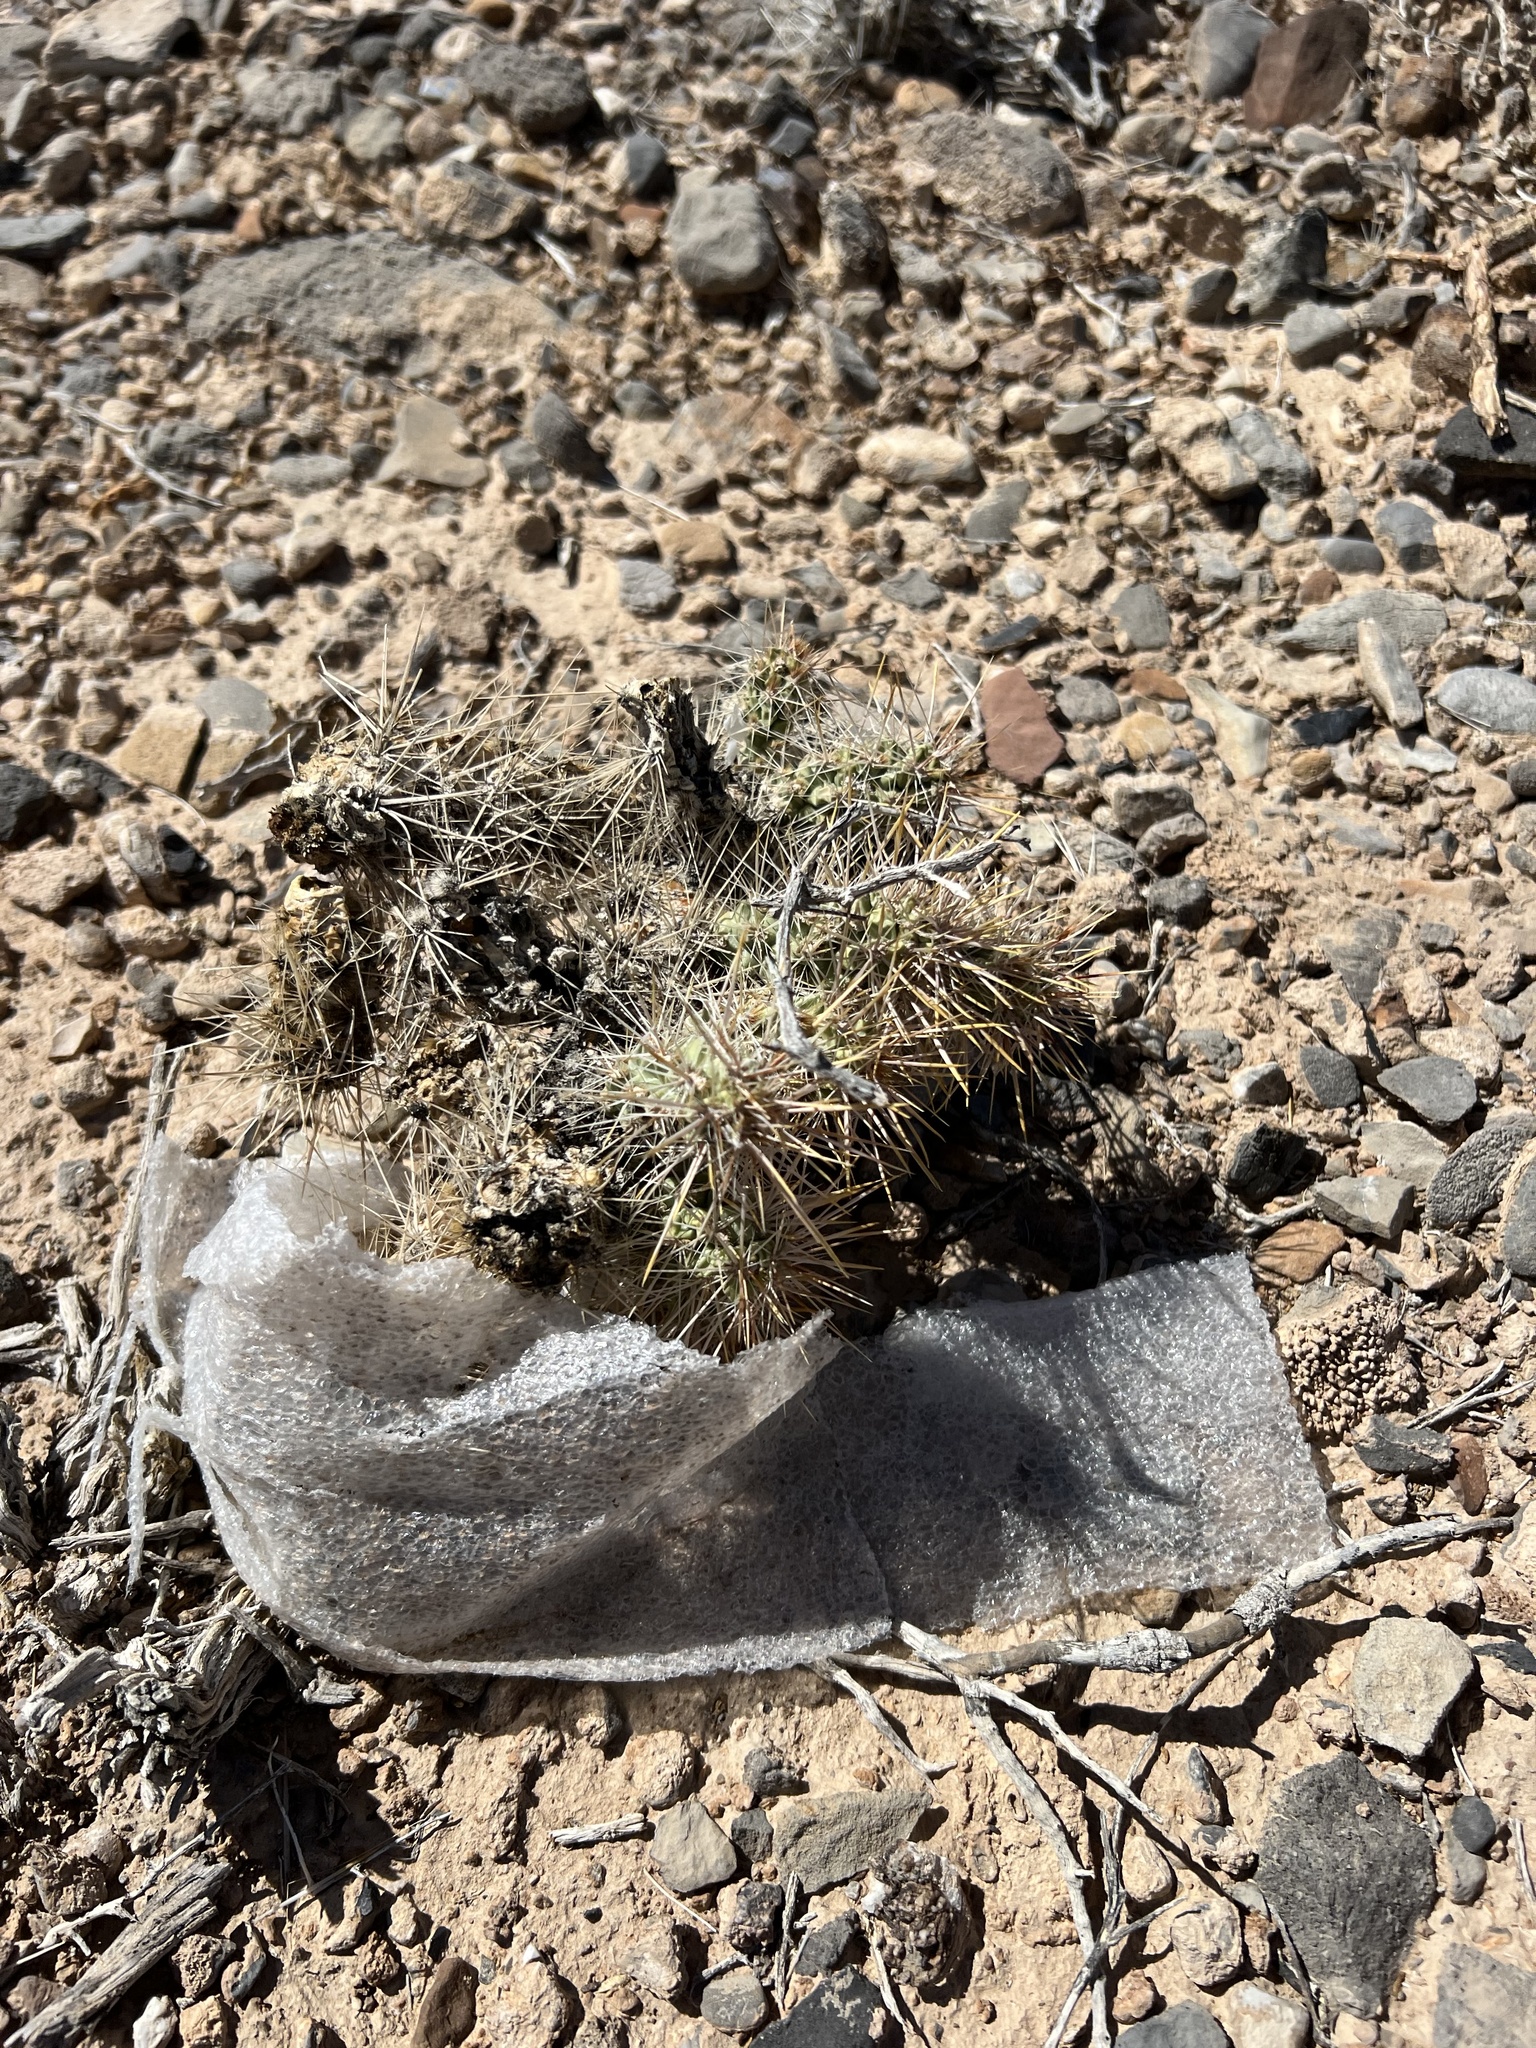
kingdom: Plantae
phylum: Tracheophyta
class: Magnoliopsida
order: Caryophyllales
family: Cactaceae
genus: Cylindropuntia
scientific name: Cylindropuntia echinocarpa
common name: Ground cholla
